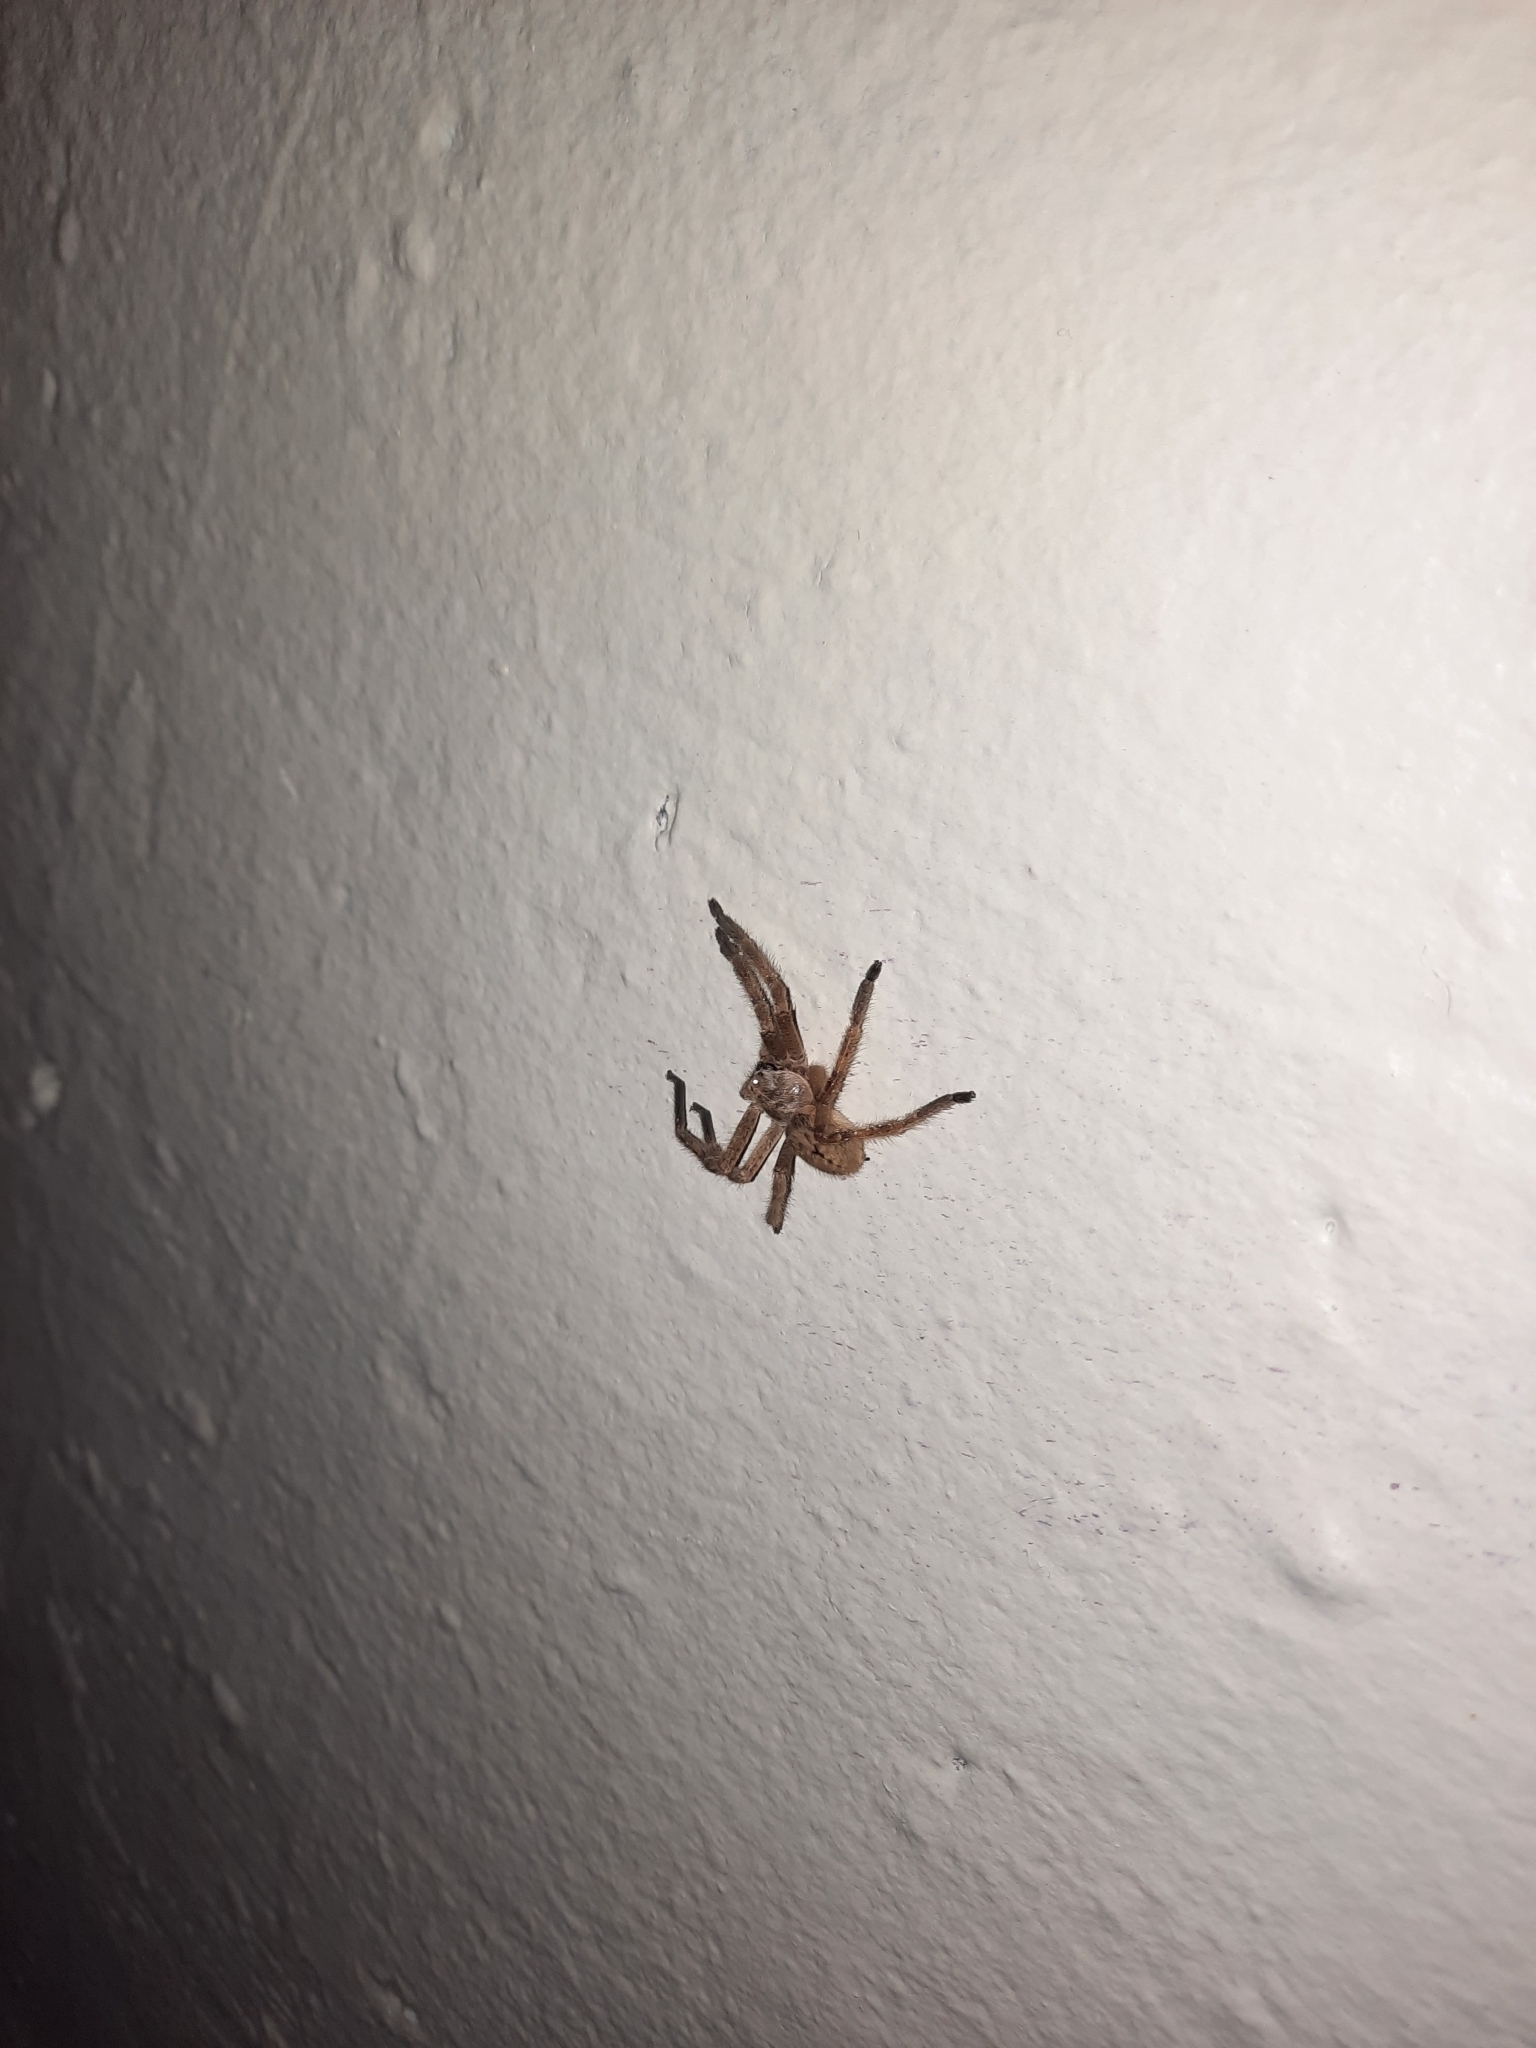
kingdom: Animalia
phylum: Arthropoda
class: Arachnida
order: Araneae
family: Sparassidae
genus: Olios
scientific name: Olios giganteus
